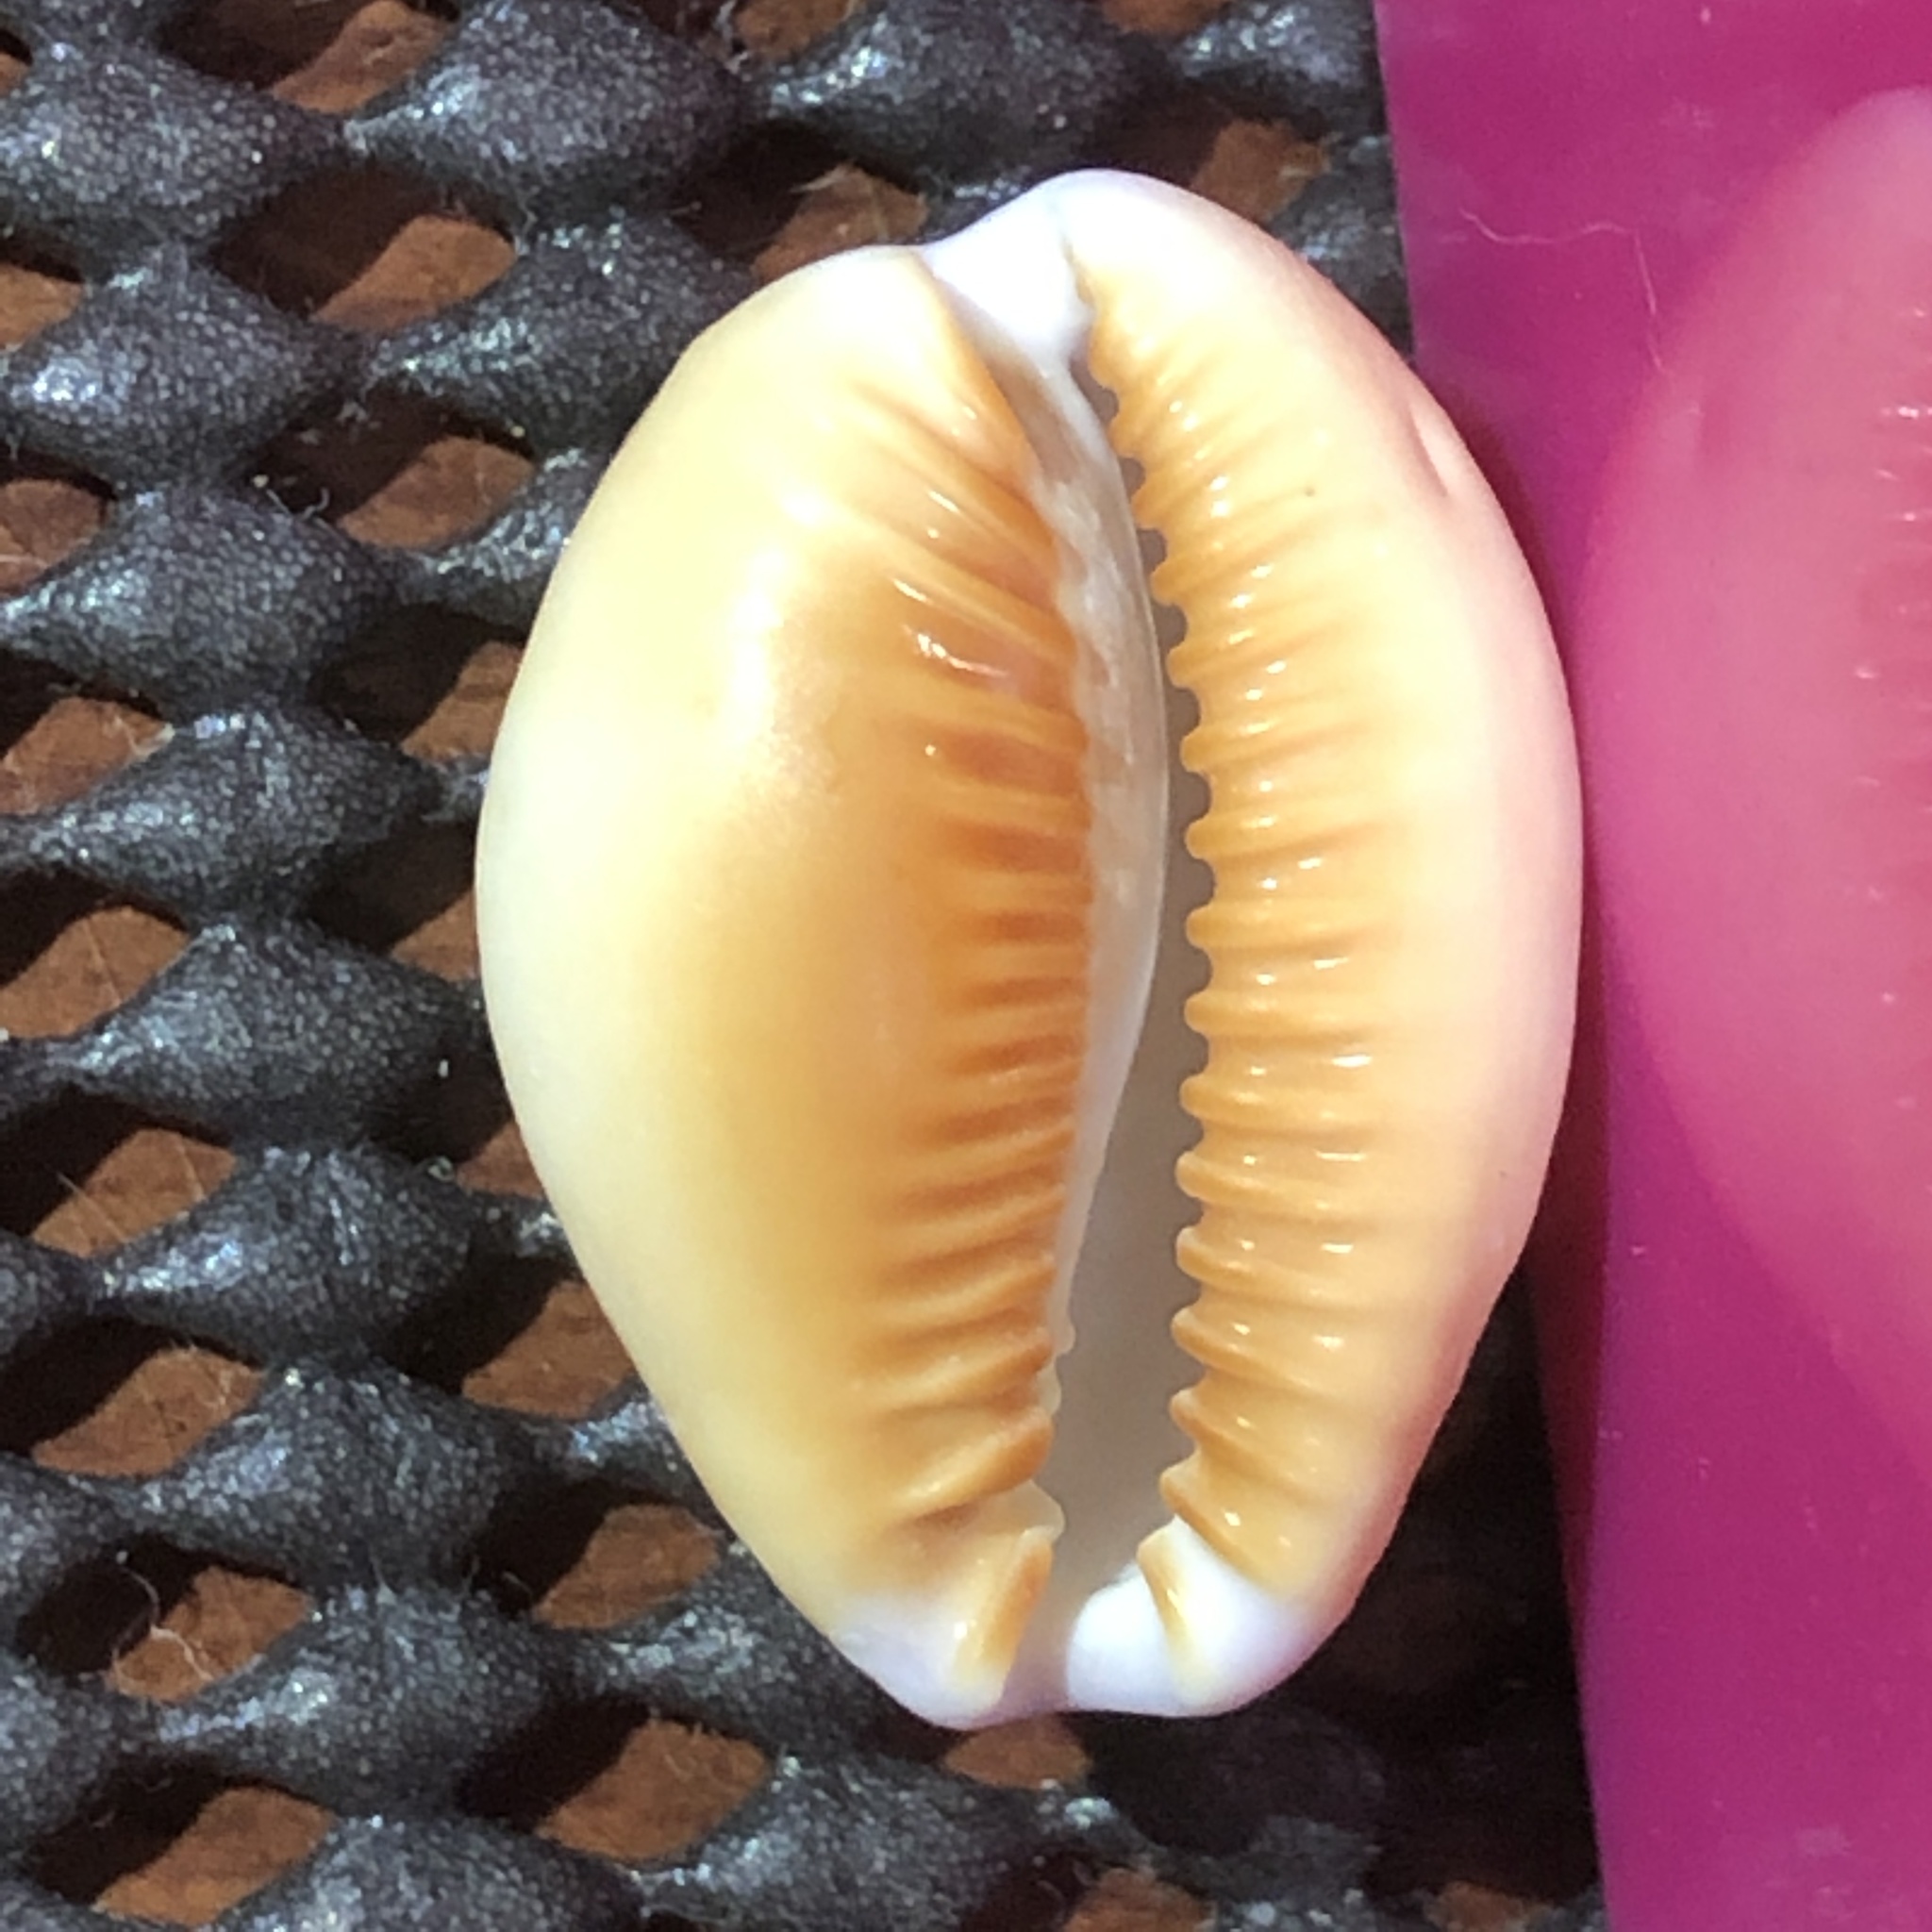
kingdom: Animalia
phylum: Mollusca
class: Gastropoda
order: Littorinimorpha
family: Cypraeidae
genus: Naria
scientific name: Naria helvola
